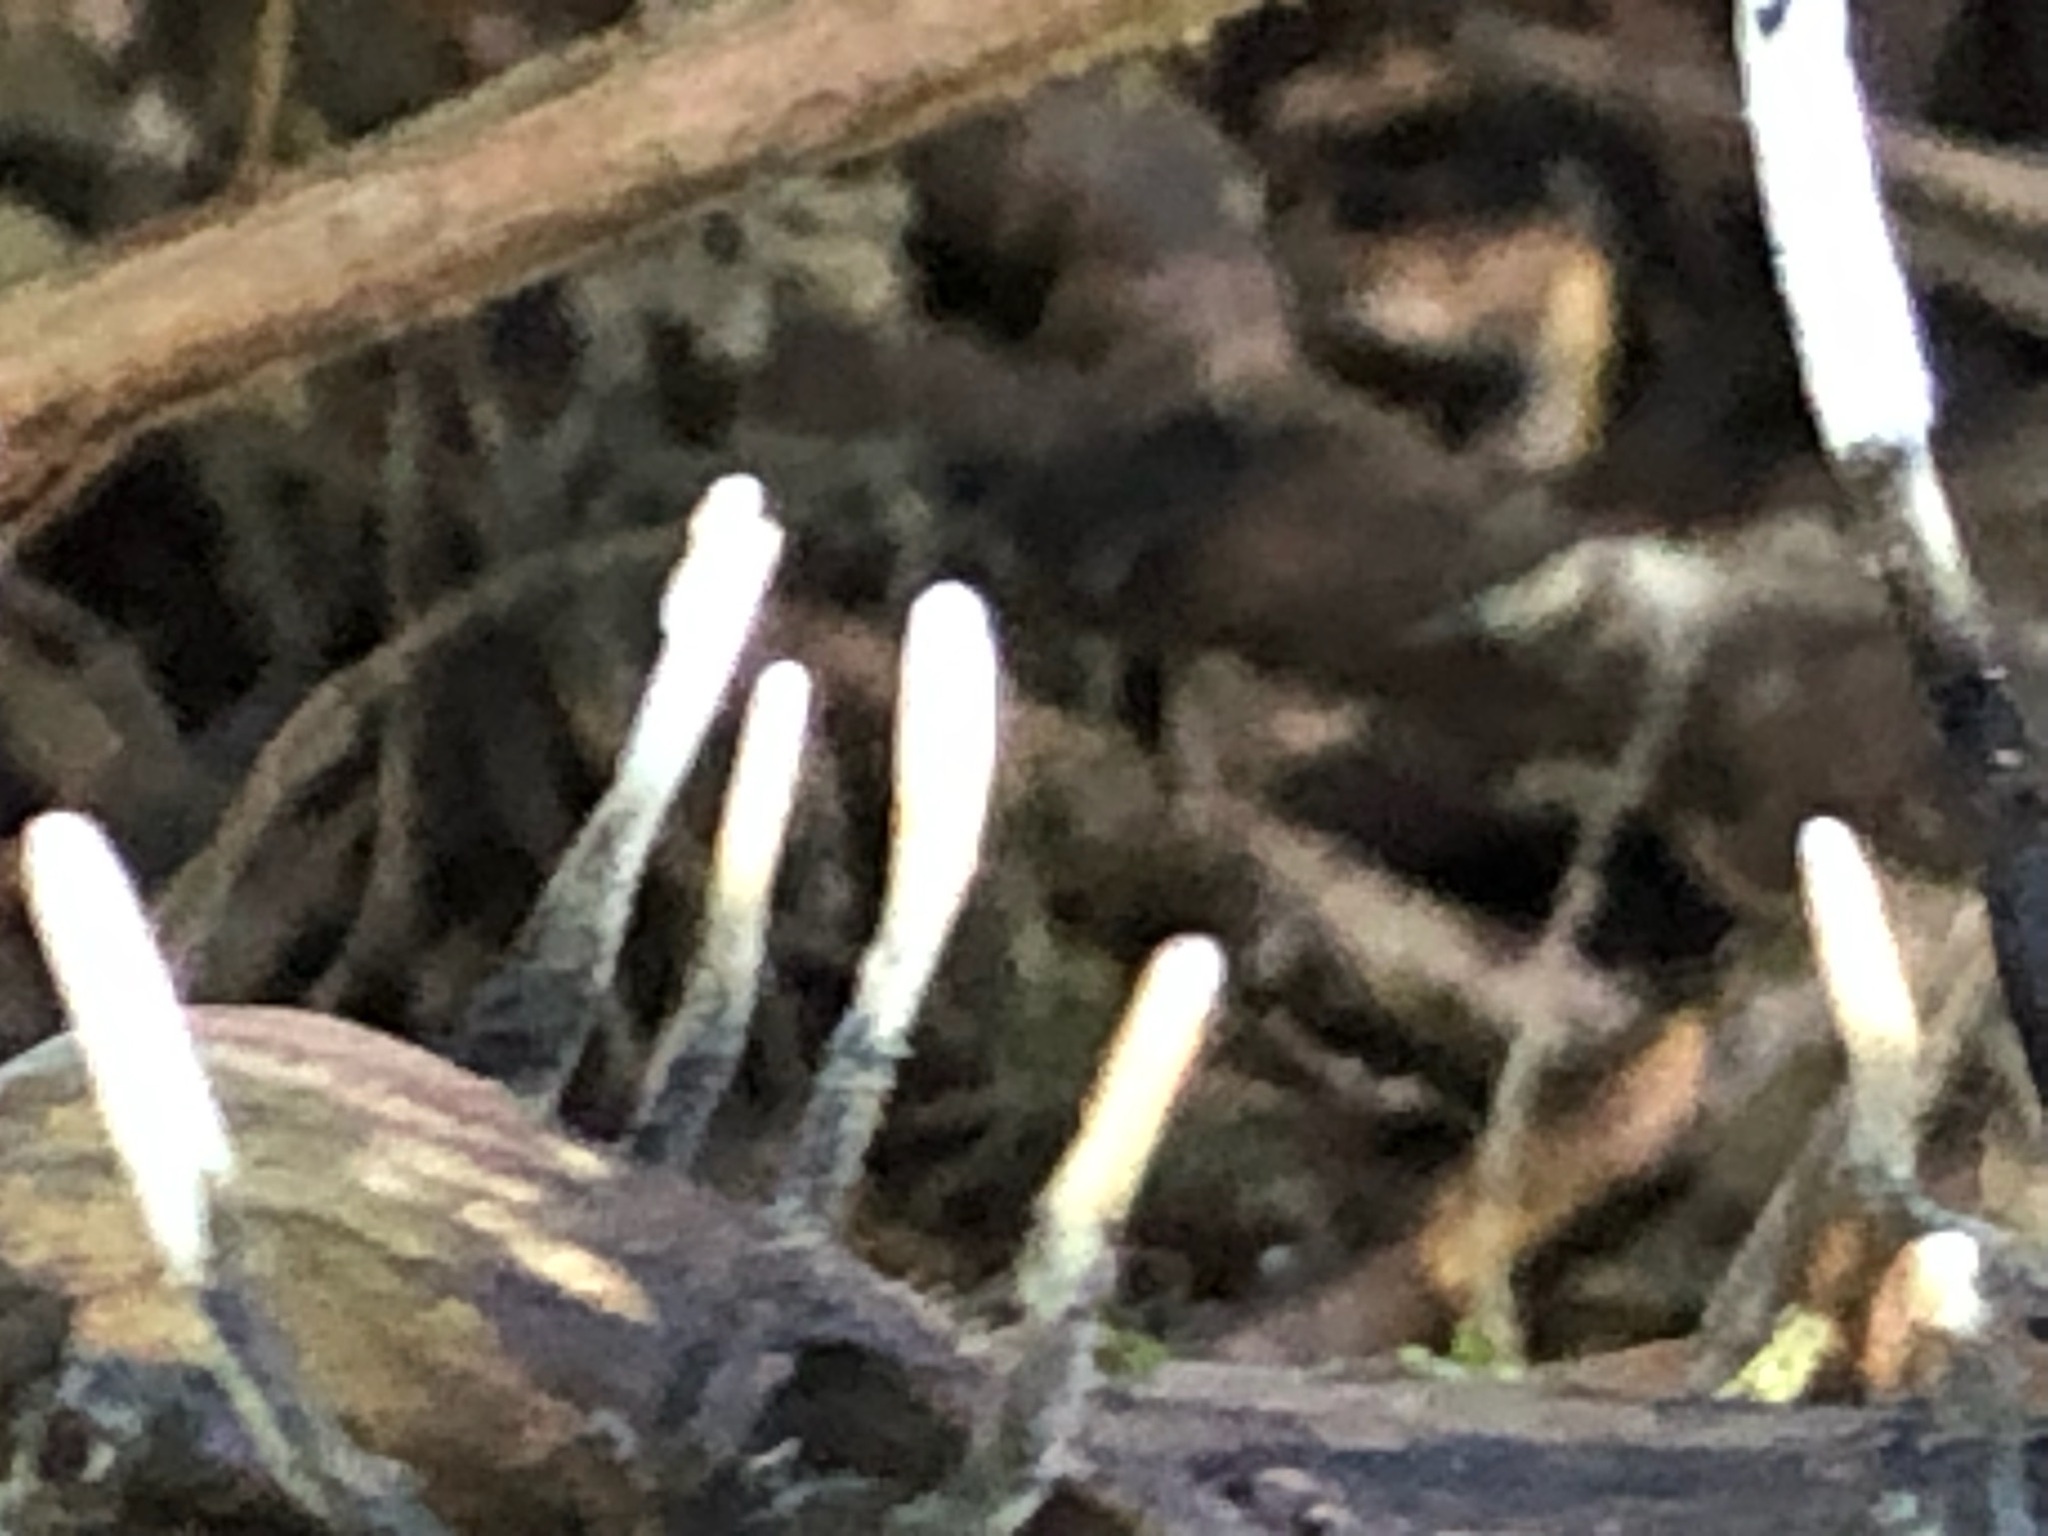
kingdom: Fungi
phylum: Ascomycota
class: Sordariomycetes
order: Xylariales
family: Xylariaceae
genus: Xylaria
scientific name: Xylaria hypoxylon
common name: Candle-snuff fungus
